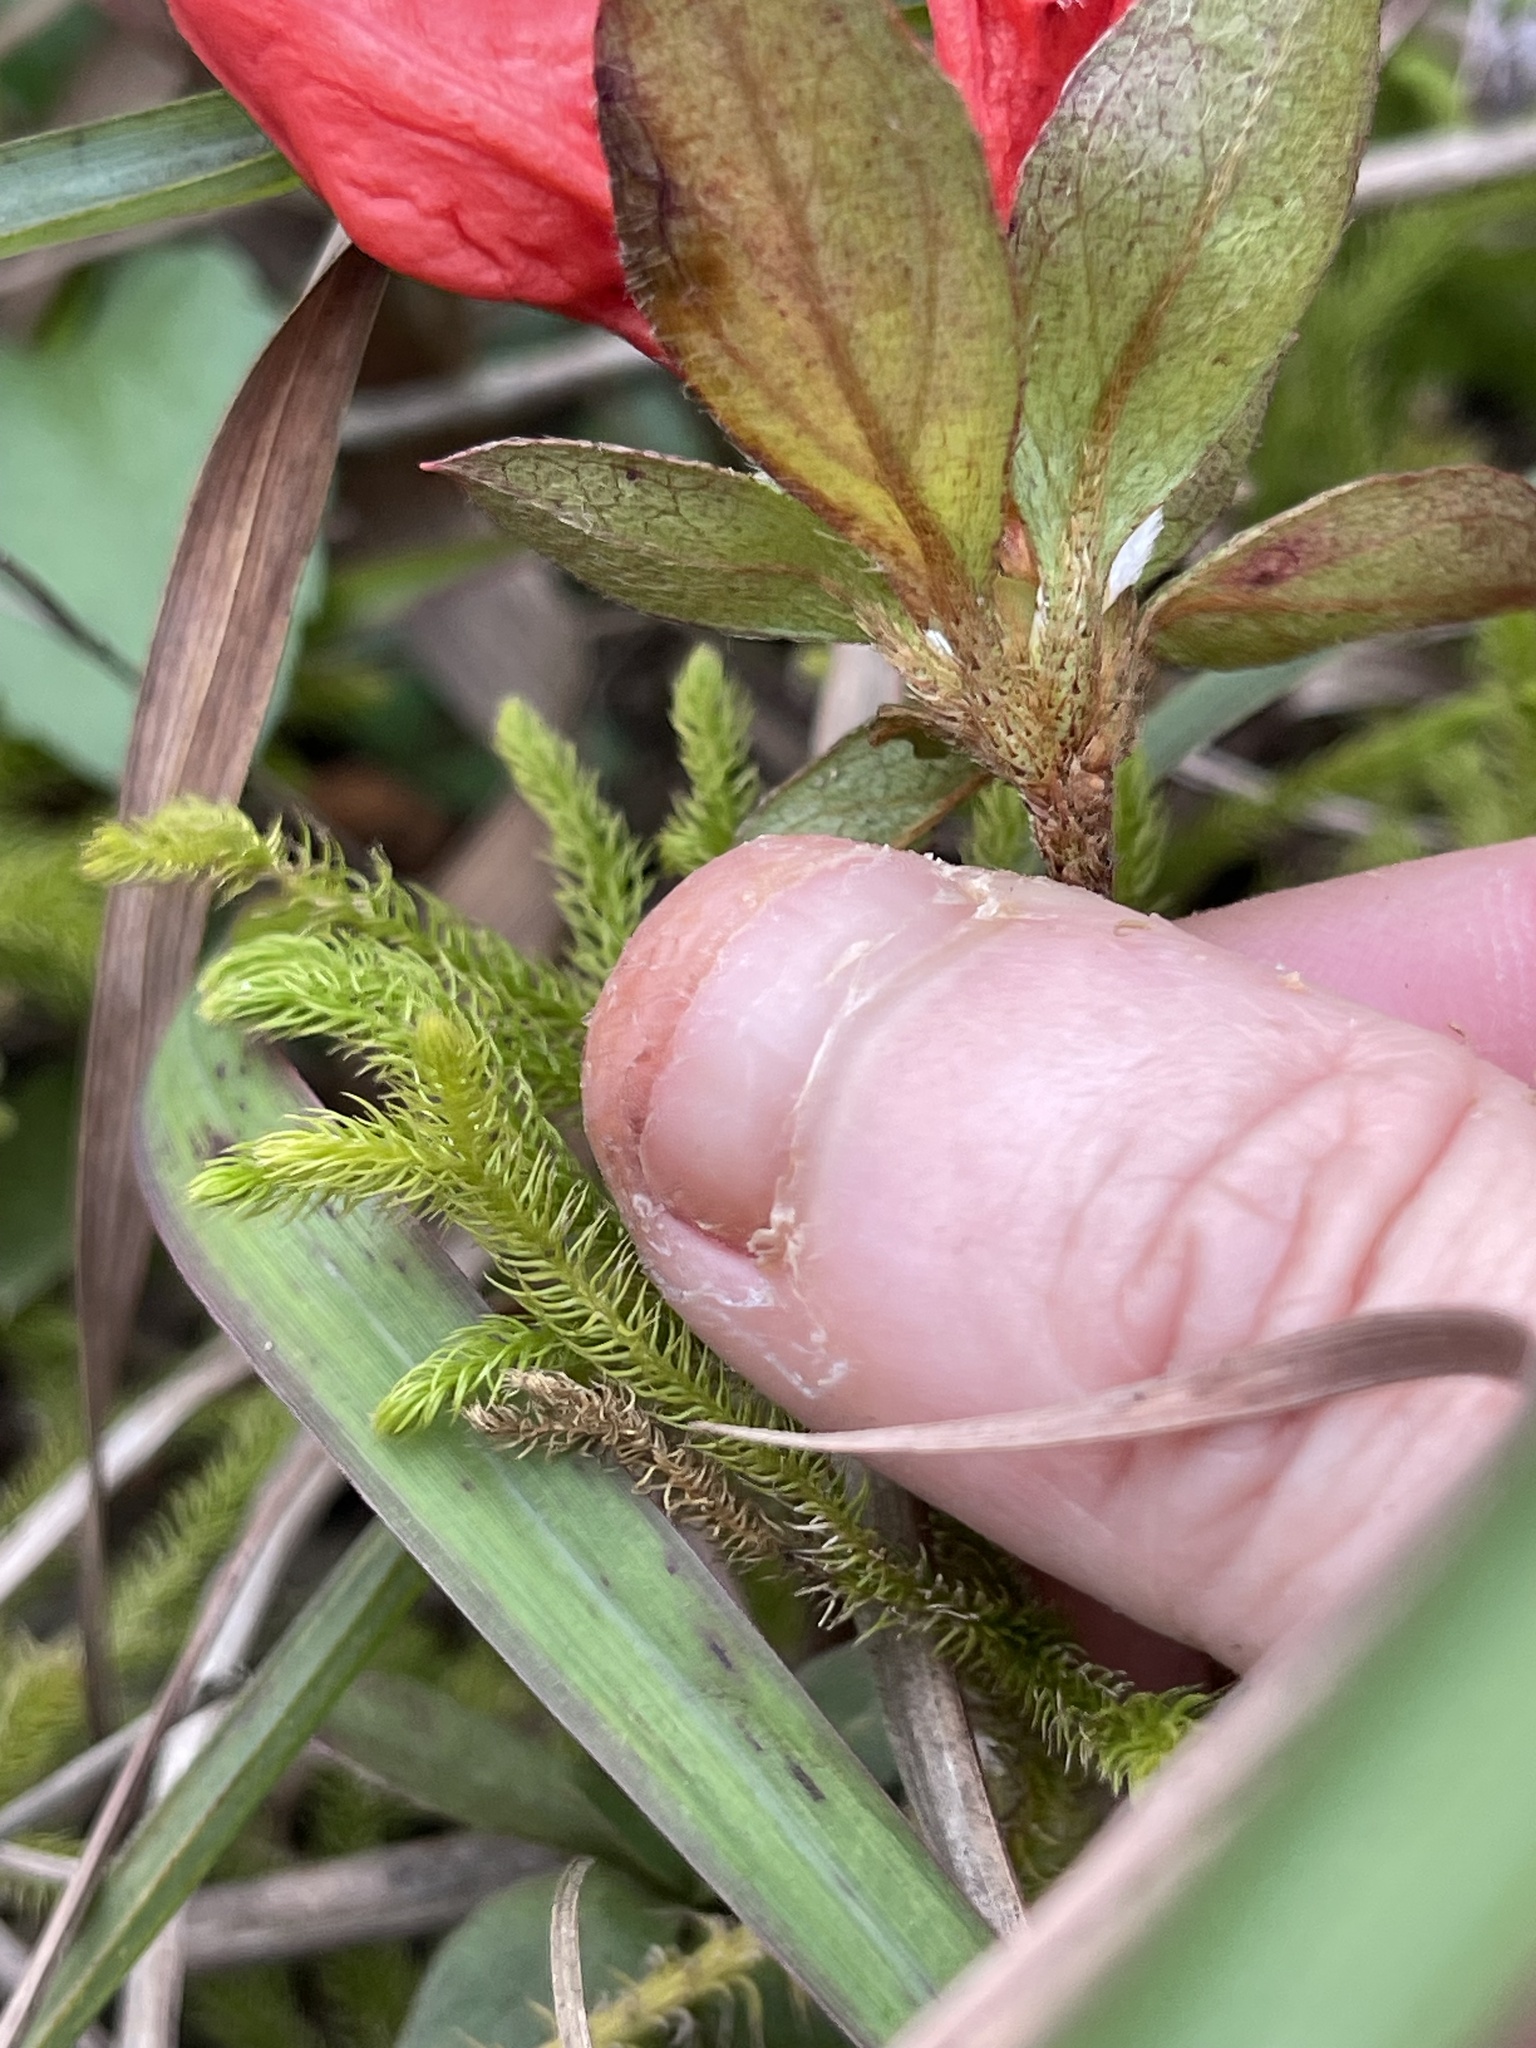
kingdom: Plantae
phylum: Tracheophyta
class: Magnoliopsida
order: Ericales
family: Ericaceae
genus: Rhododendron
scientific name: Rhododendron simsii
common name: Rhododendron
